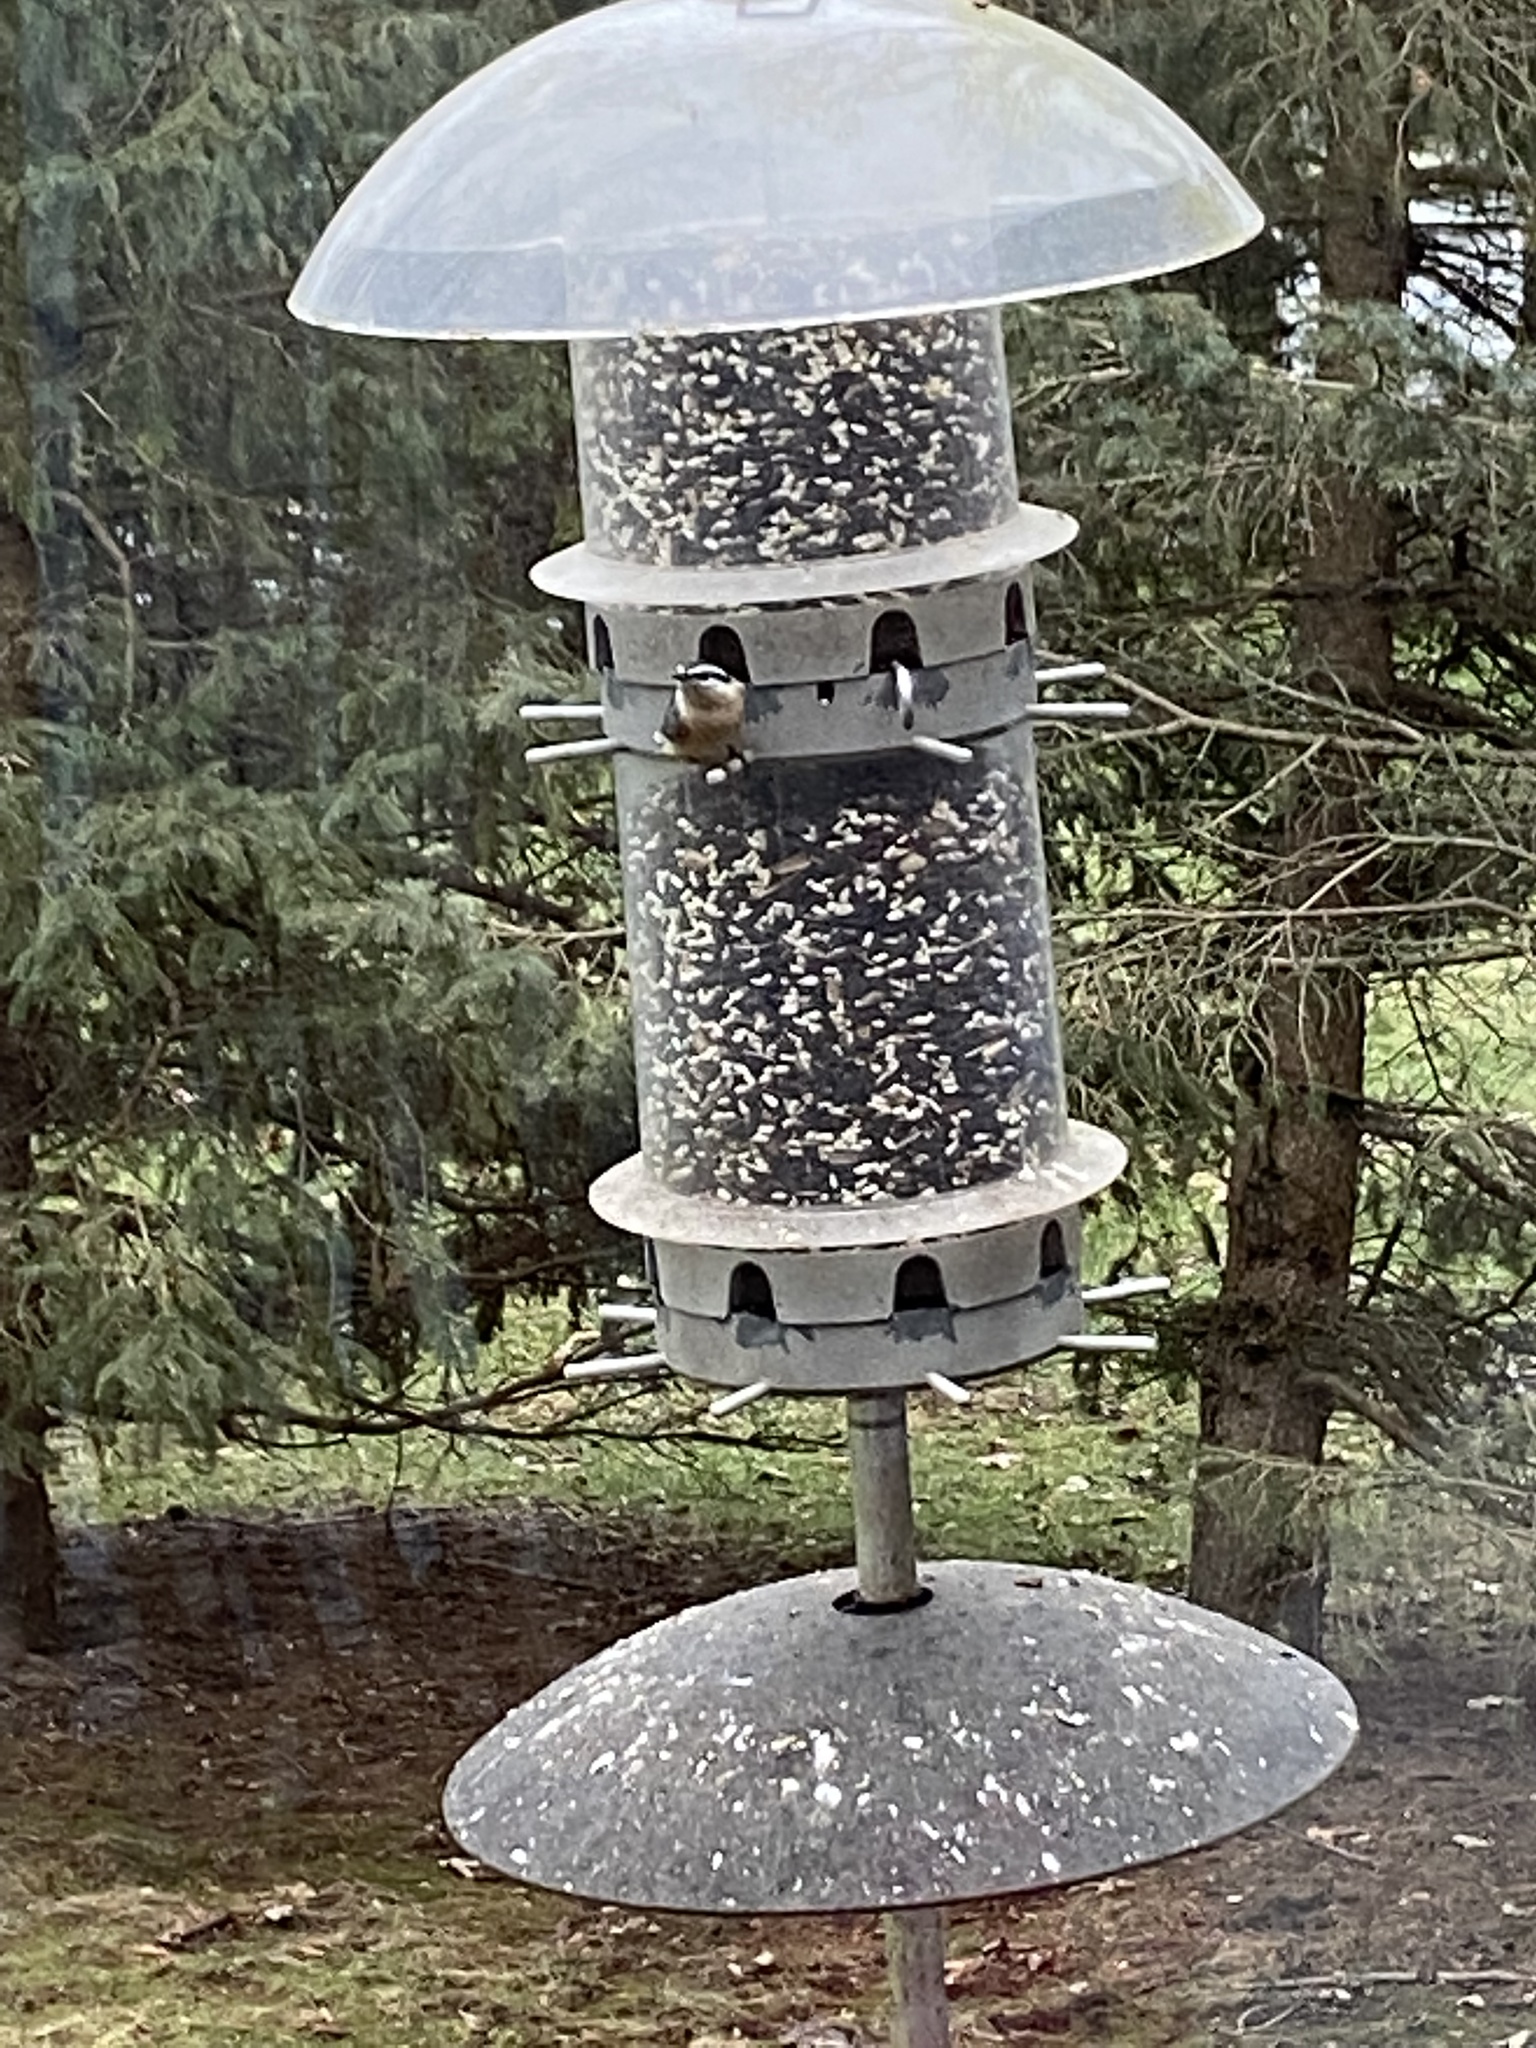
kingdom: Animalia
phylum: Chordata
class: Aves
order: Passeriformes
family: Sittidae
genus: Sitta
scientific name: Sitta canadensis
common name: Red-breasted nuthatch
